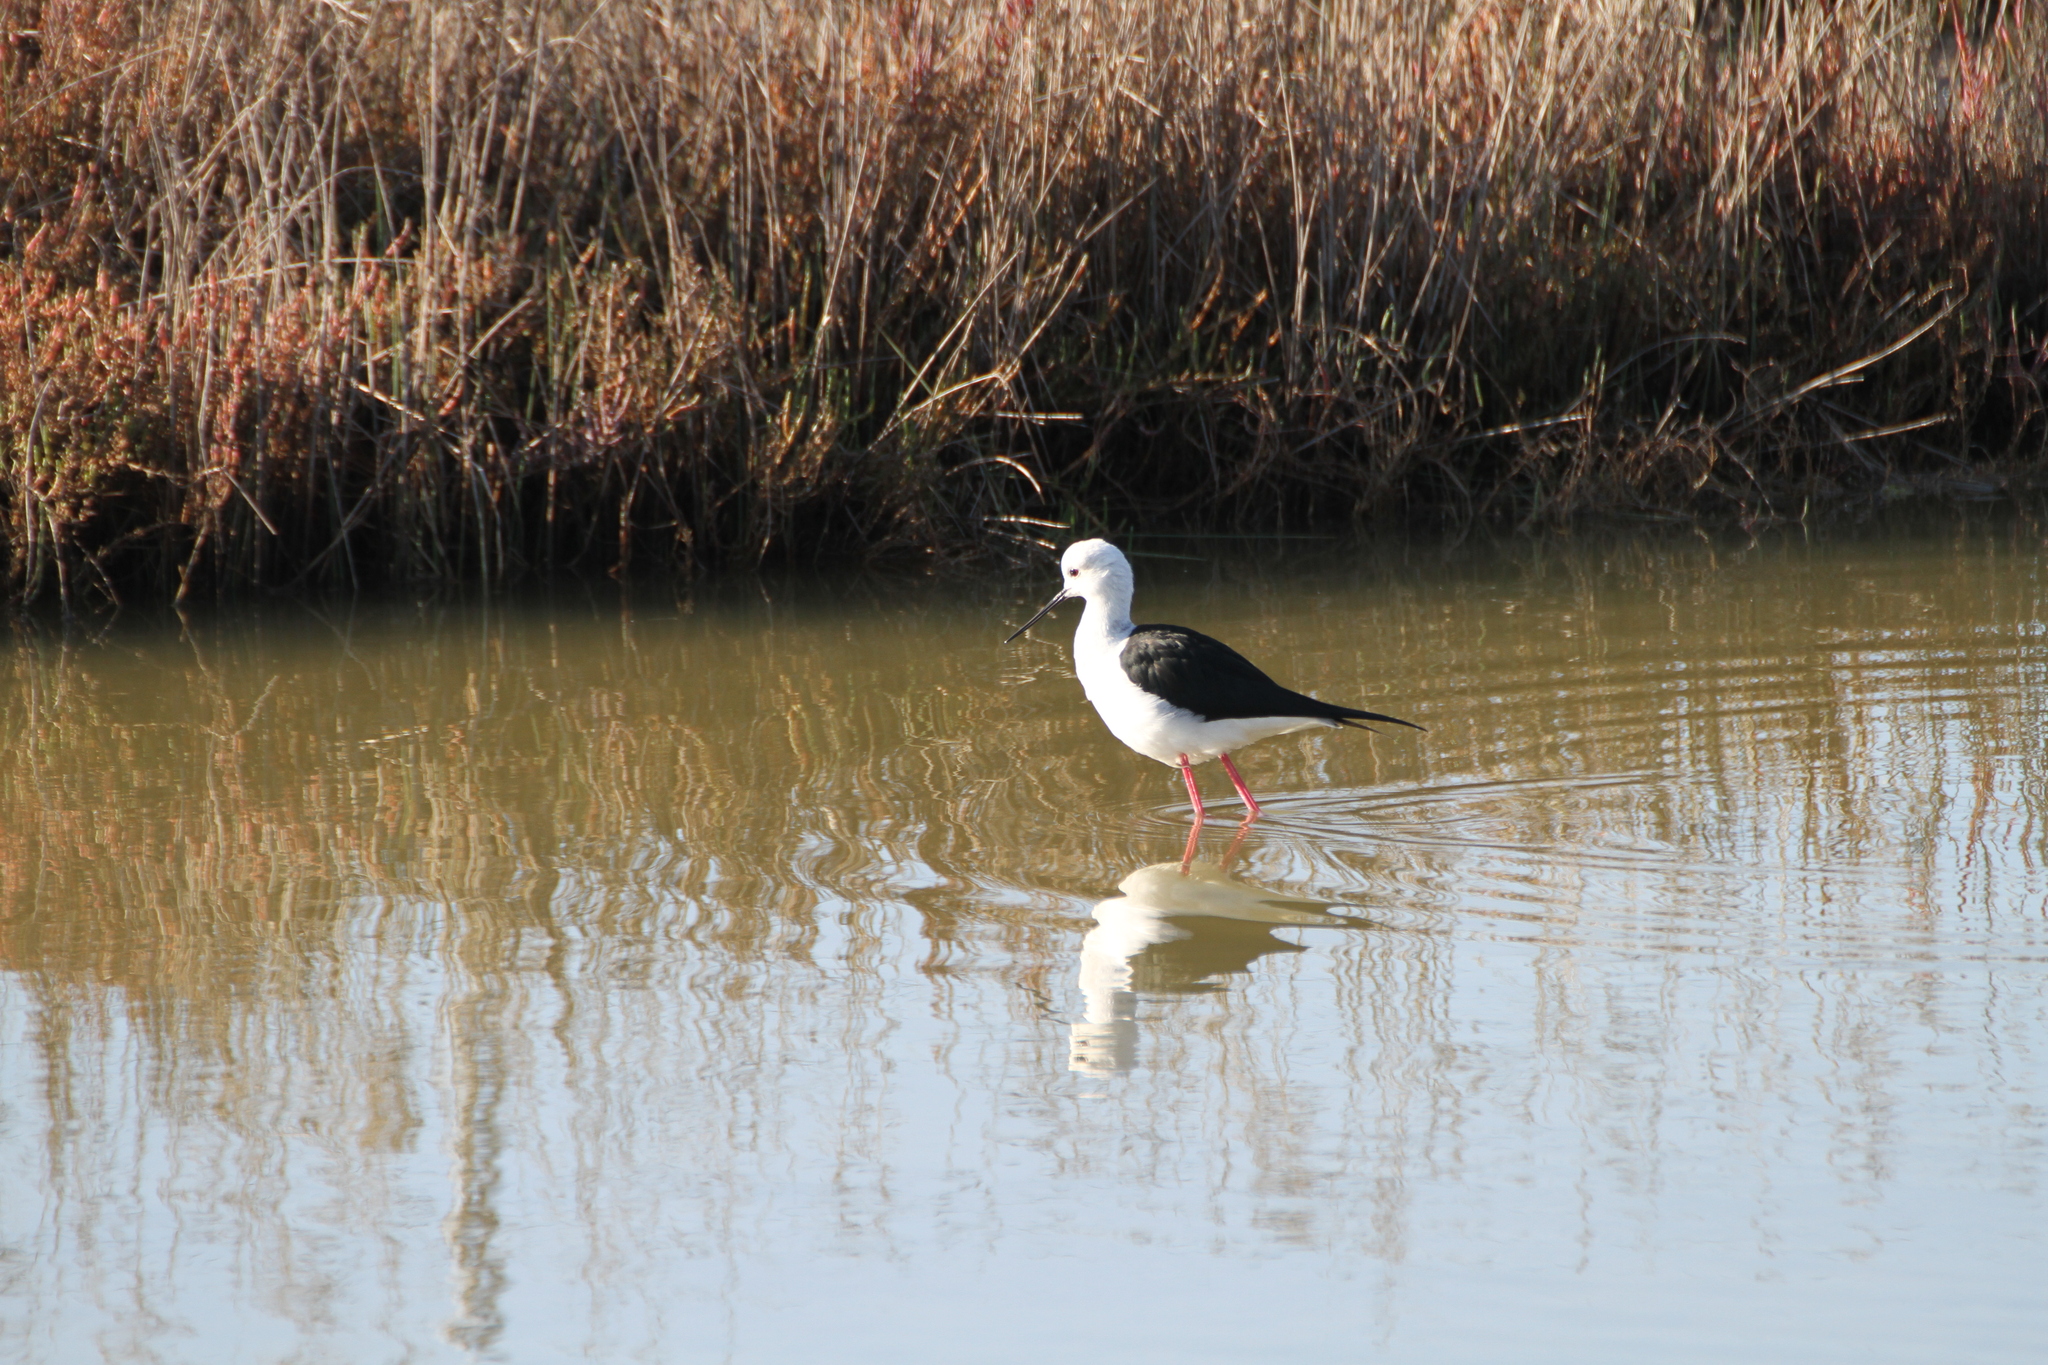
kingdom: Animalia
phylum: Chordata
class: Aves
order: Charadriiformes
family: Recurvirostridae
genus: Himantopus
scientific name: Himantopus himantopus
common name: Black-winged stilt
